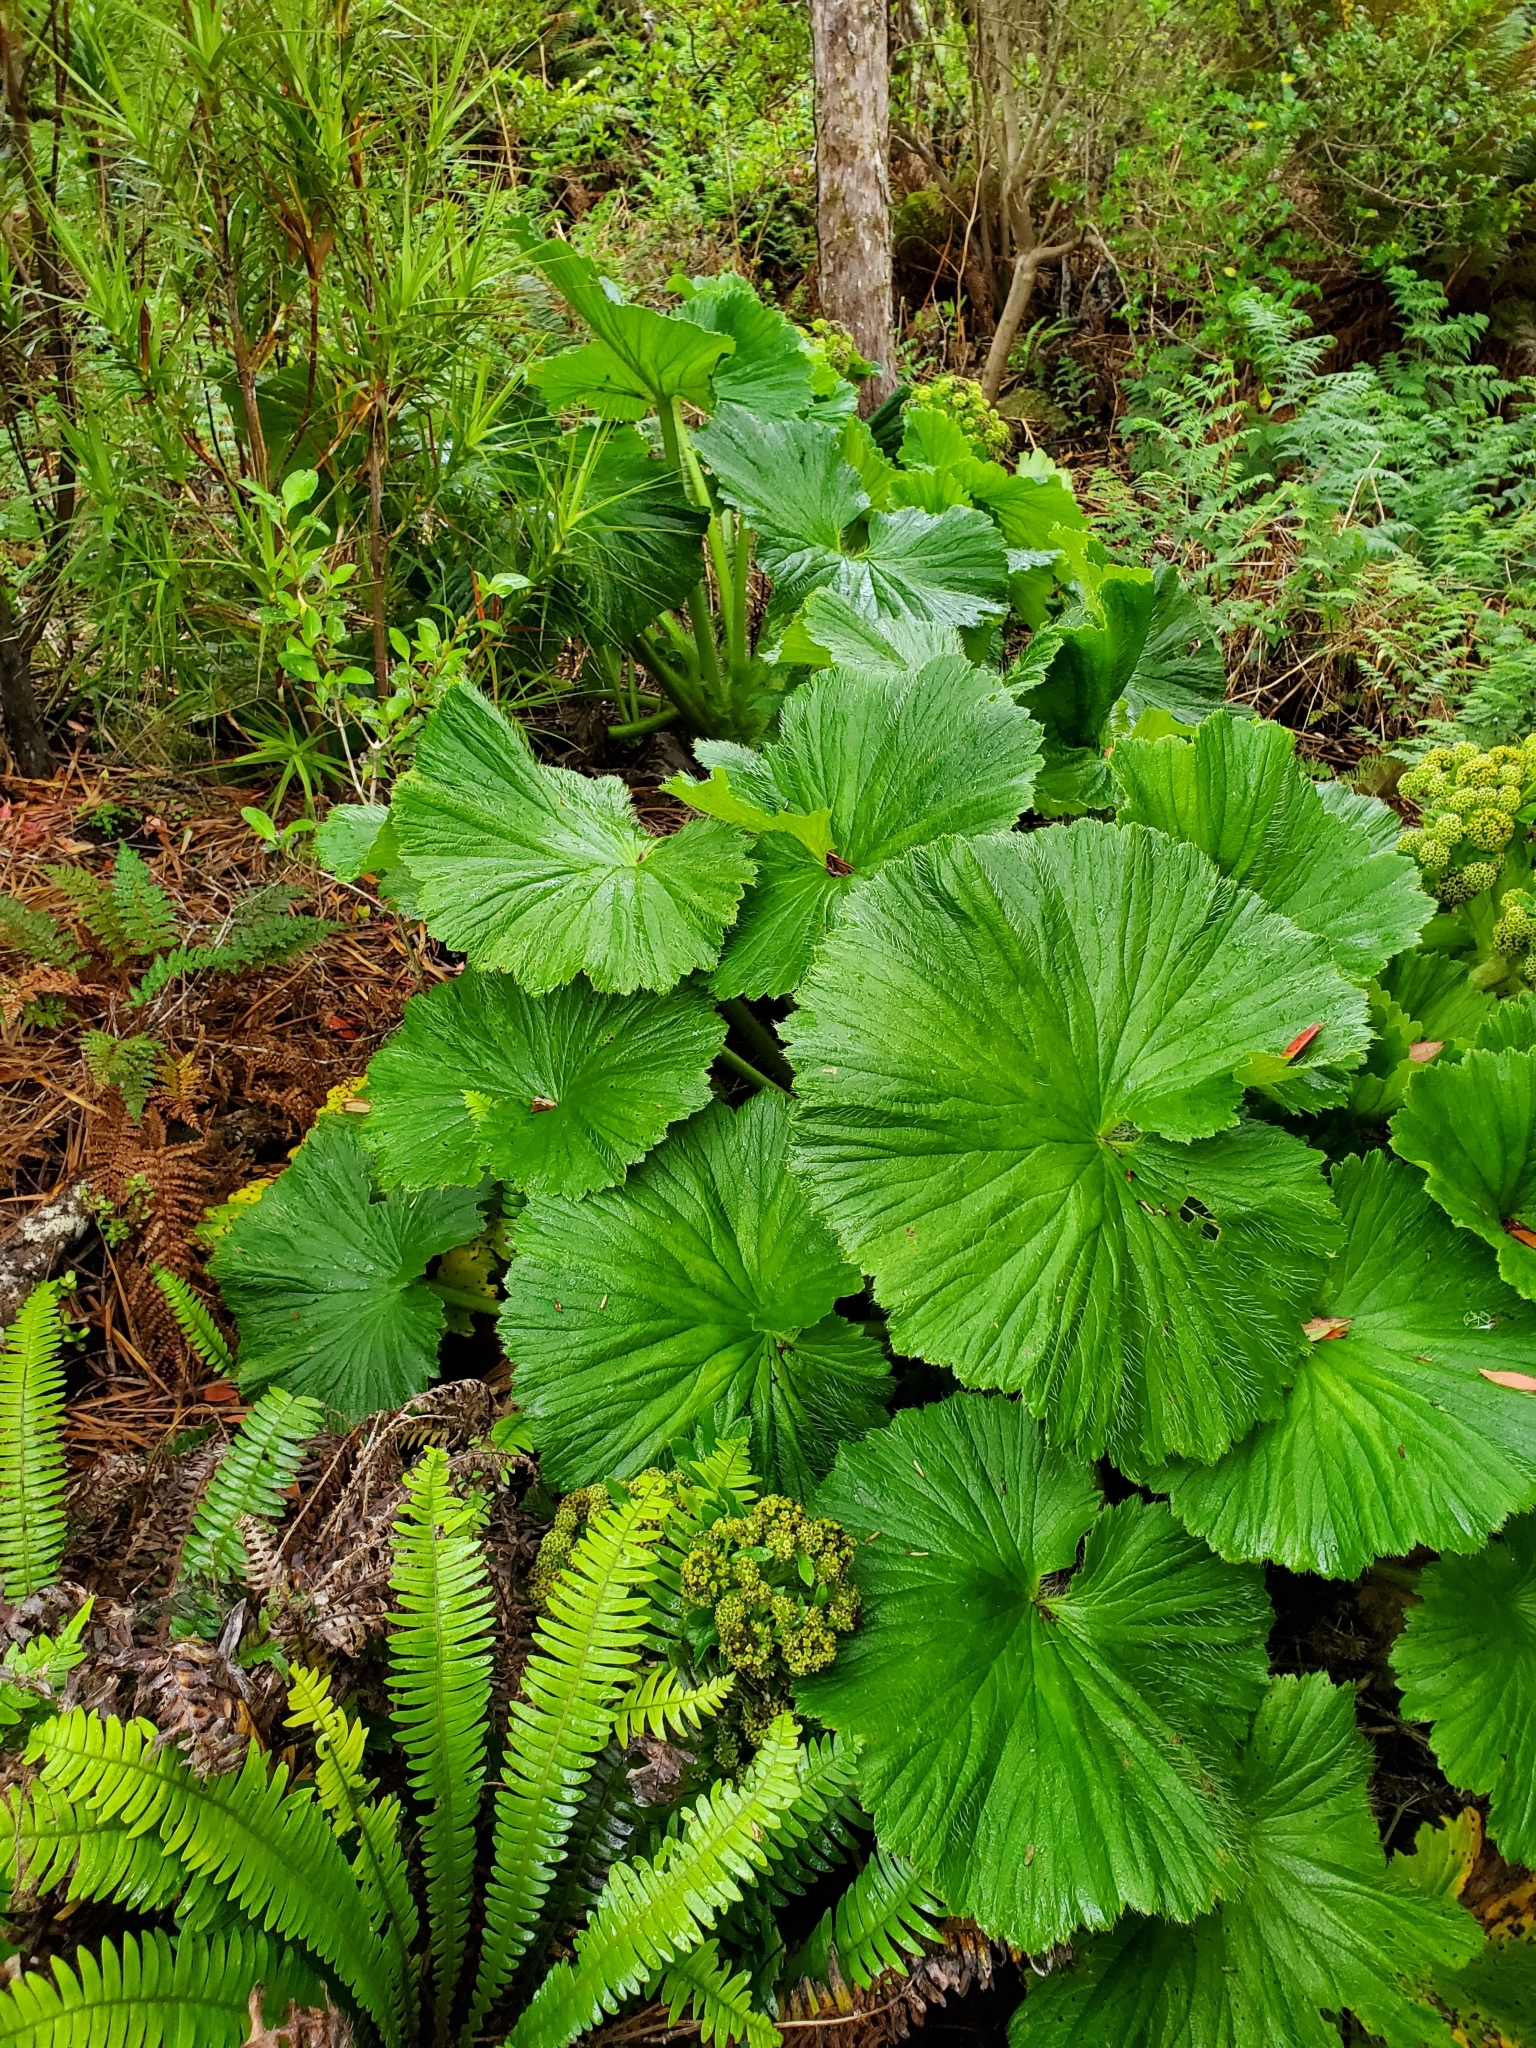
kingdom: Plantae
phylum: Tracheophyta
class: Magnoliopsida
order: Apiales
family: Apiaceae
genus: Azorella
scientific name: Azorella polaris
